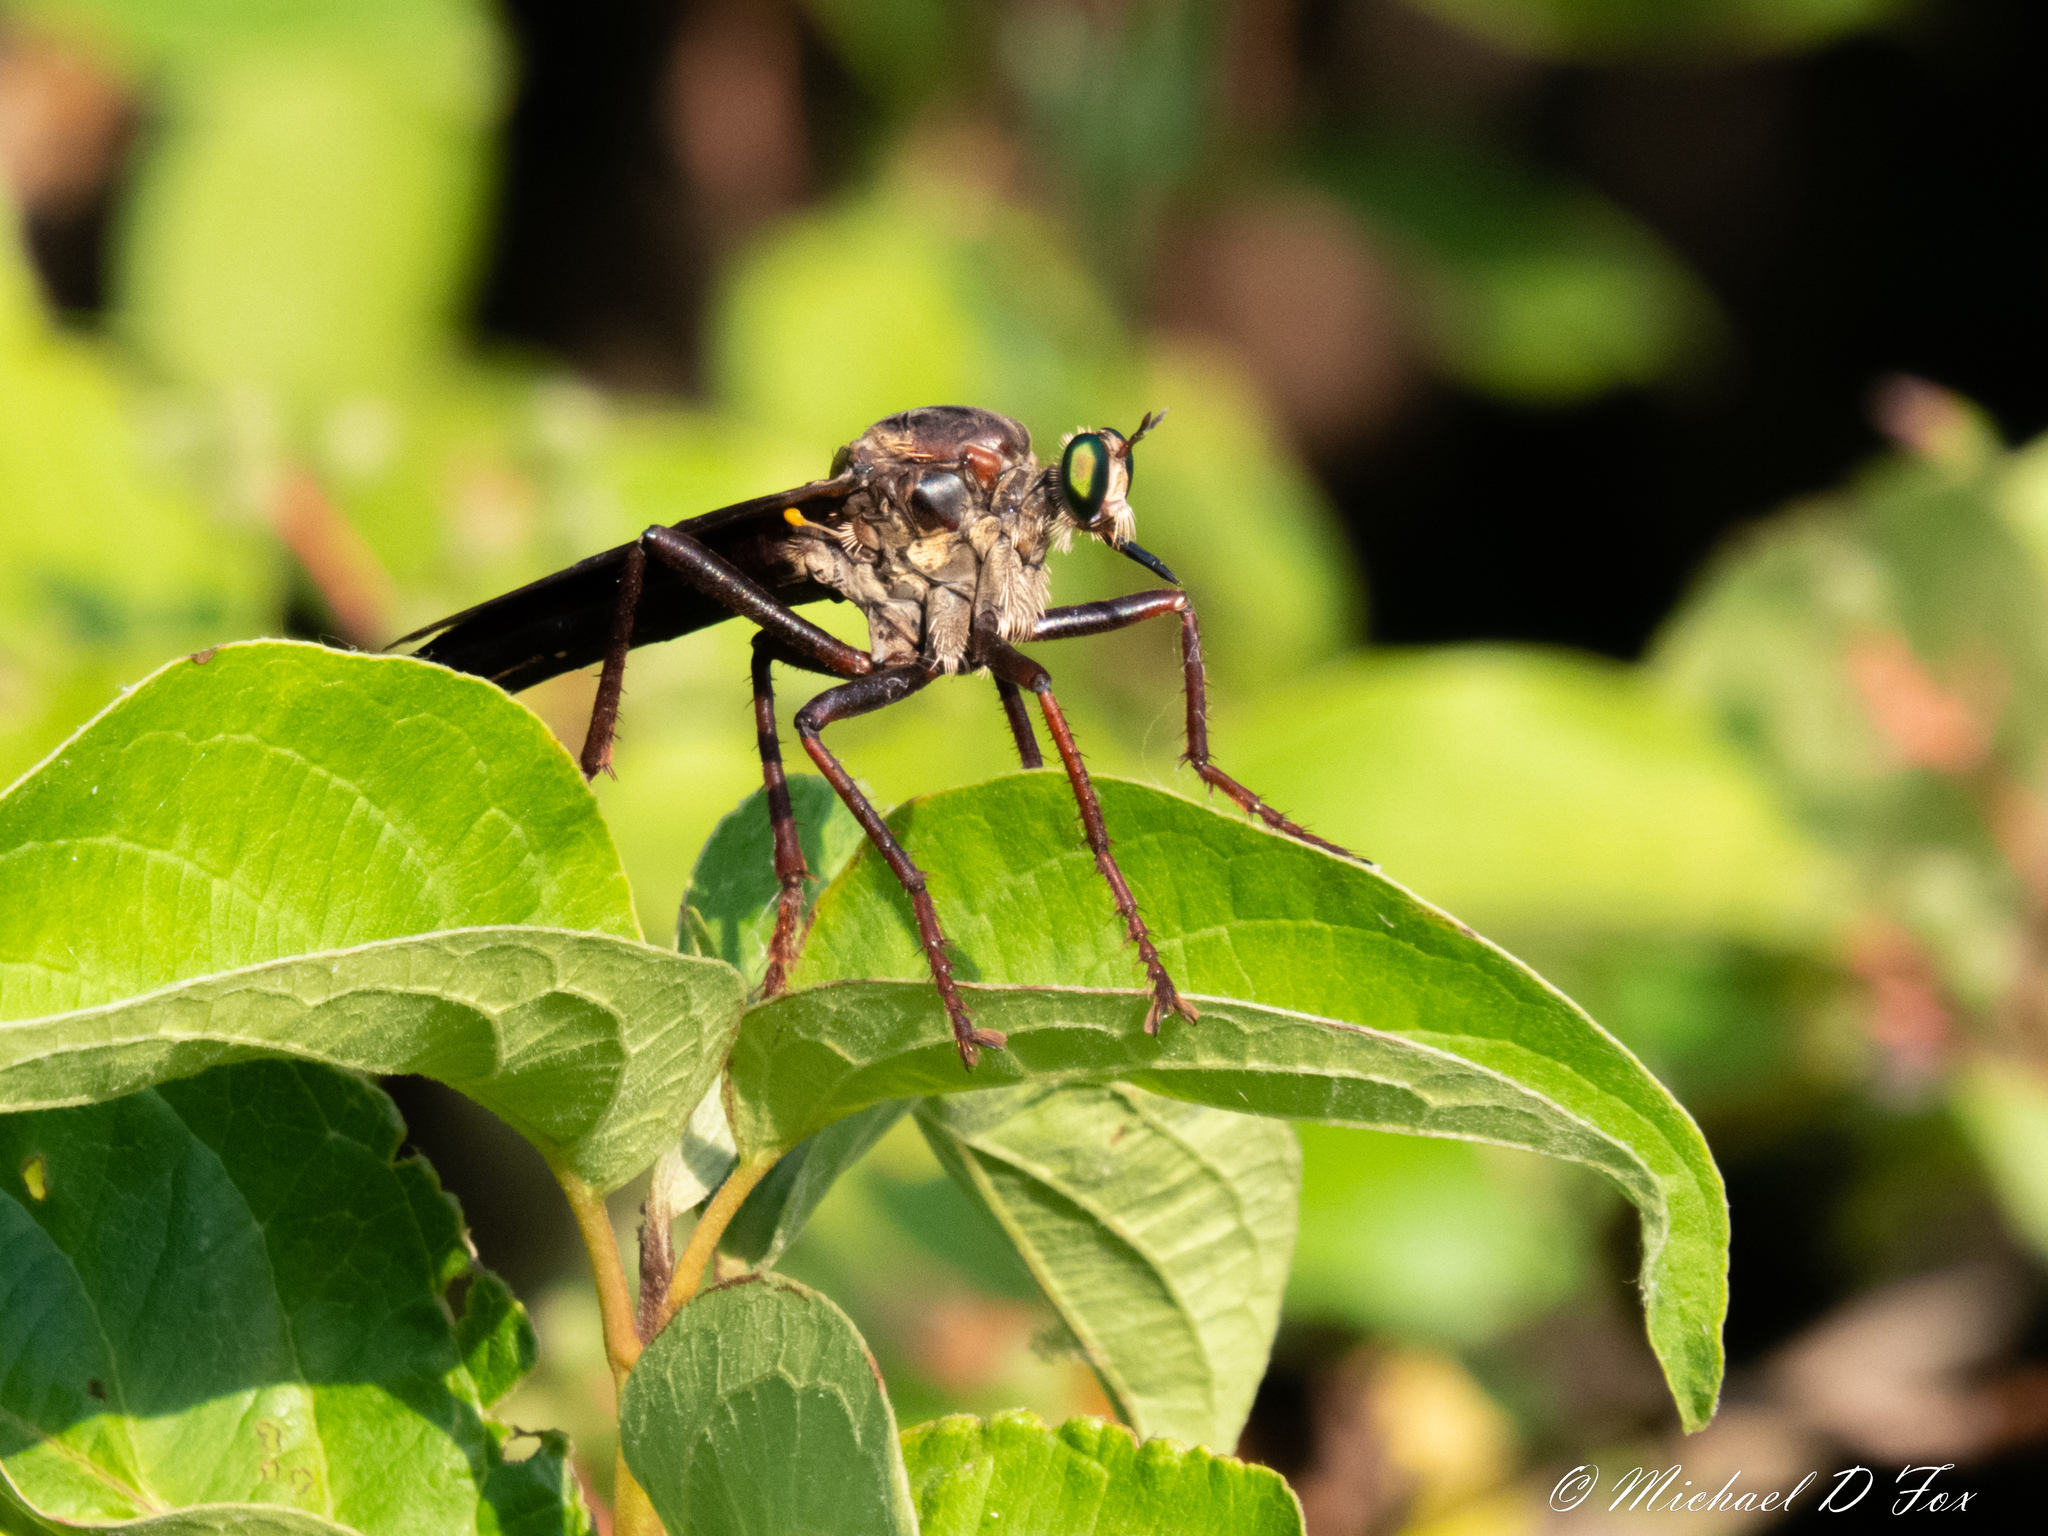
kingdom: Animalia
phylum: Arthropoda
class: Insecta
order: Diptera
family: Asilidae
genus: Microstylum
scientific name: Microstylum morosum
